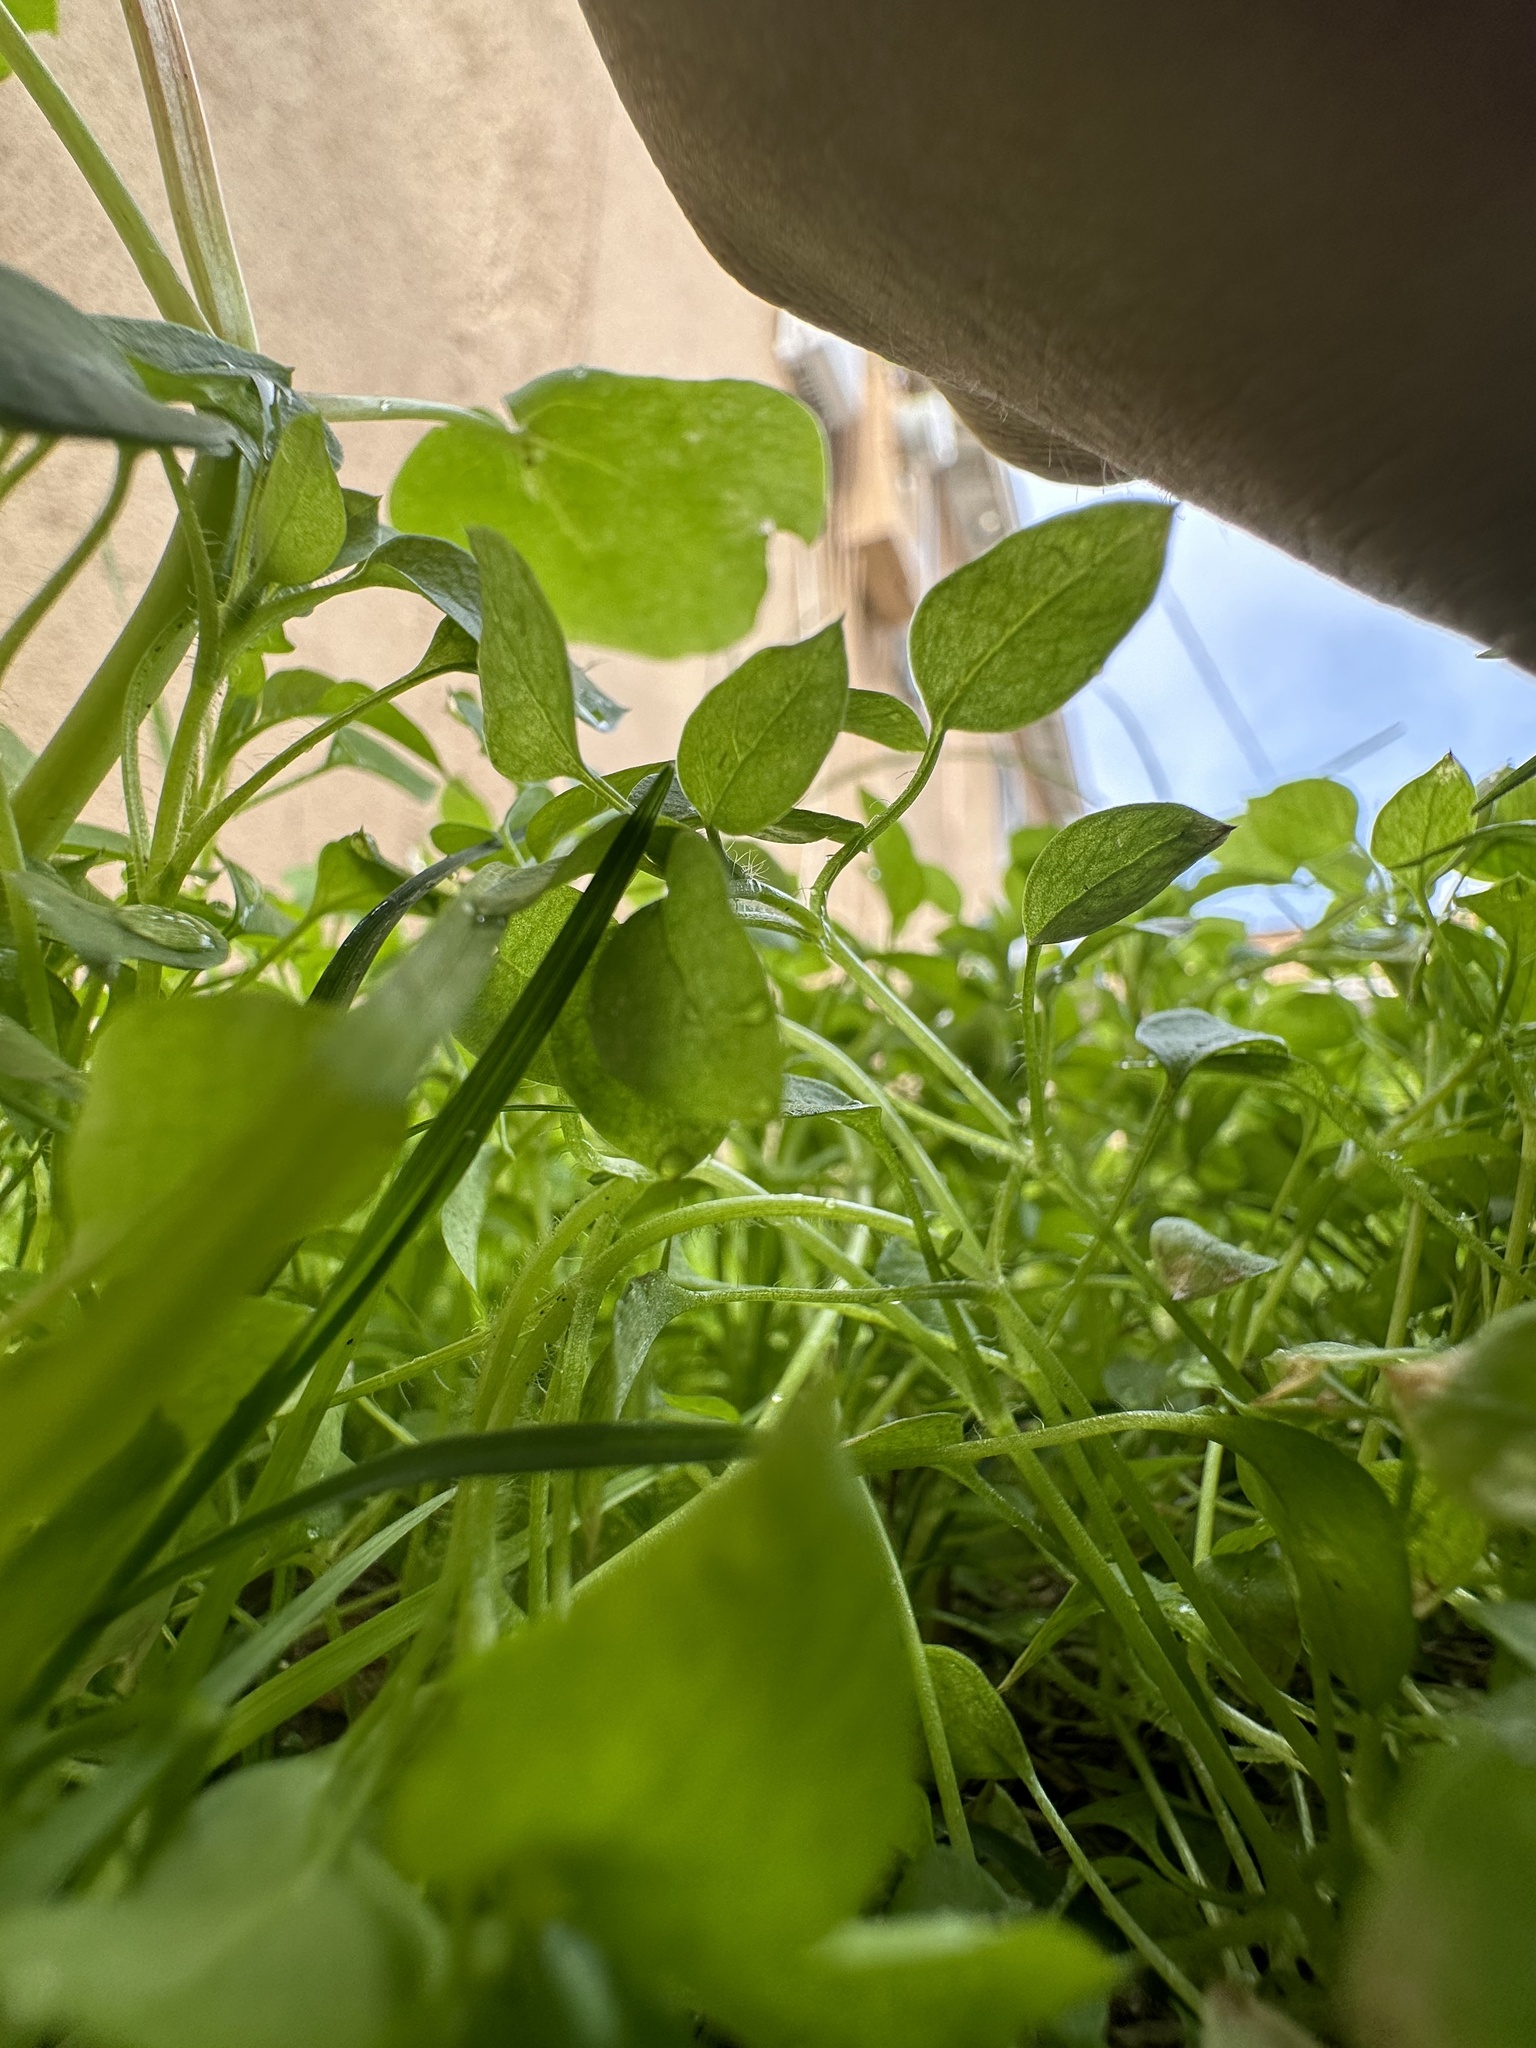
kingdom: Plantae
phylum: Tracheophyta
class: Magnoliopsida
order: Caryophyllales
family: Caryophyllaceae
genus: Stellaria
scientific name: Stellaria media
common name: Common chickweed
